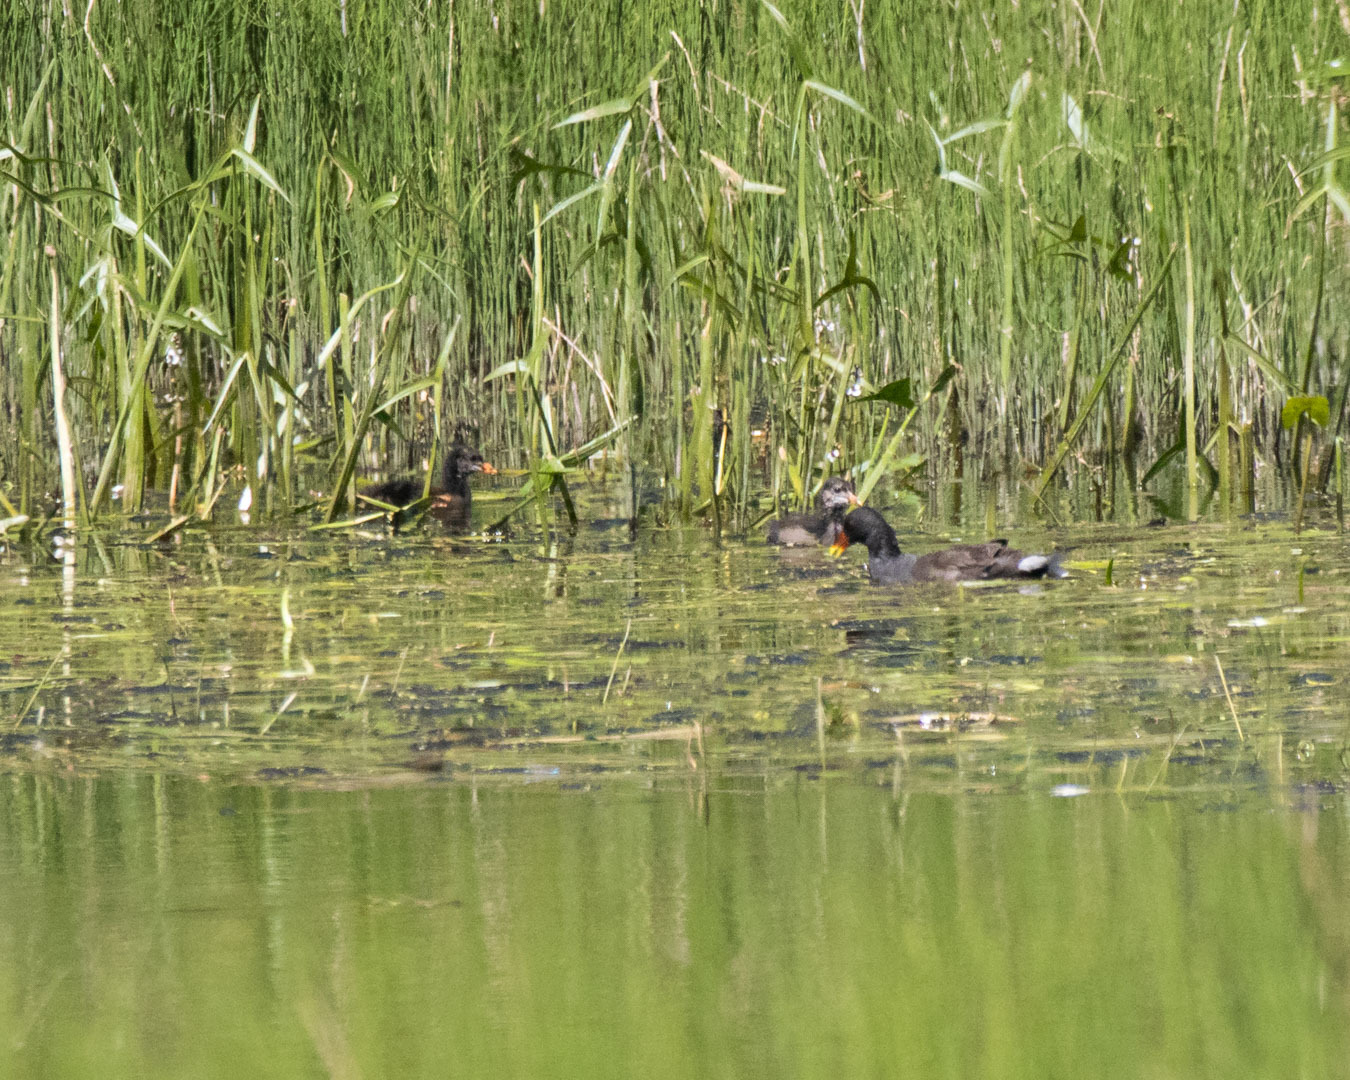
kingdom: Animalia
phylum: Chordata
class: Aves
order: Gruiformes
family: Rallidae
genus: Gallinula
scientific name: Gallinula chloropus
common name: Common moorhen
